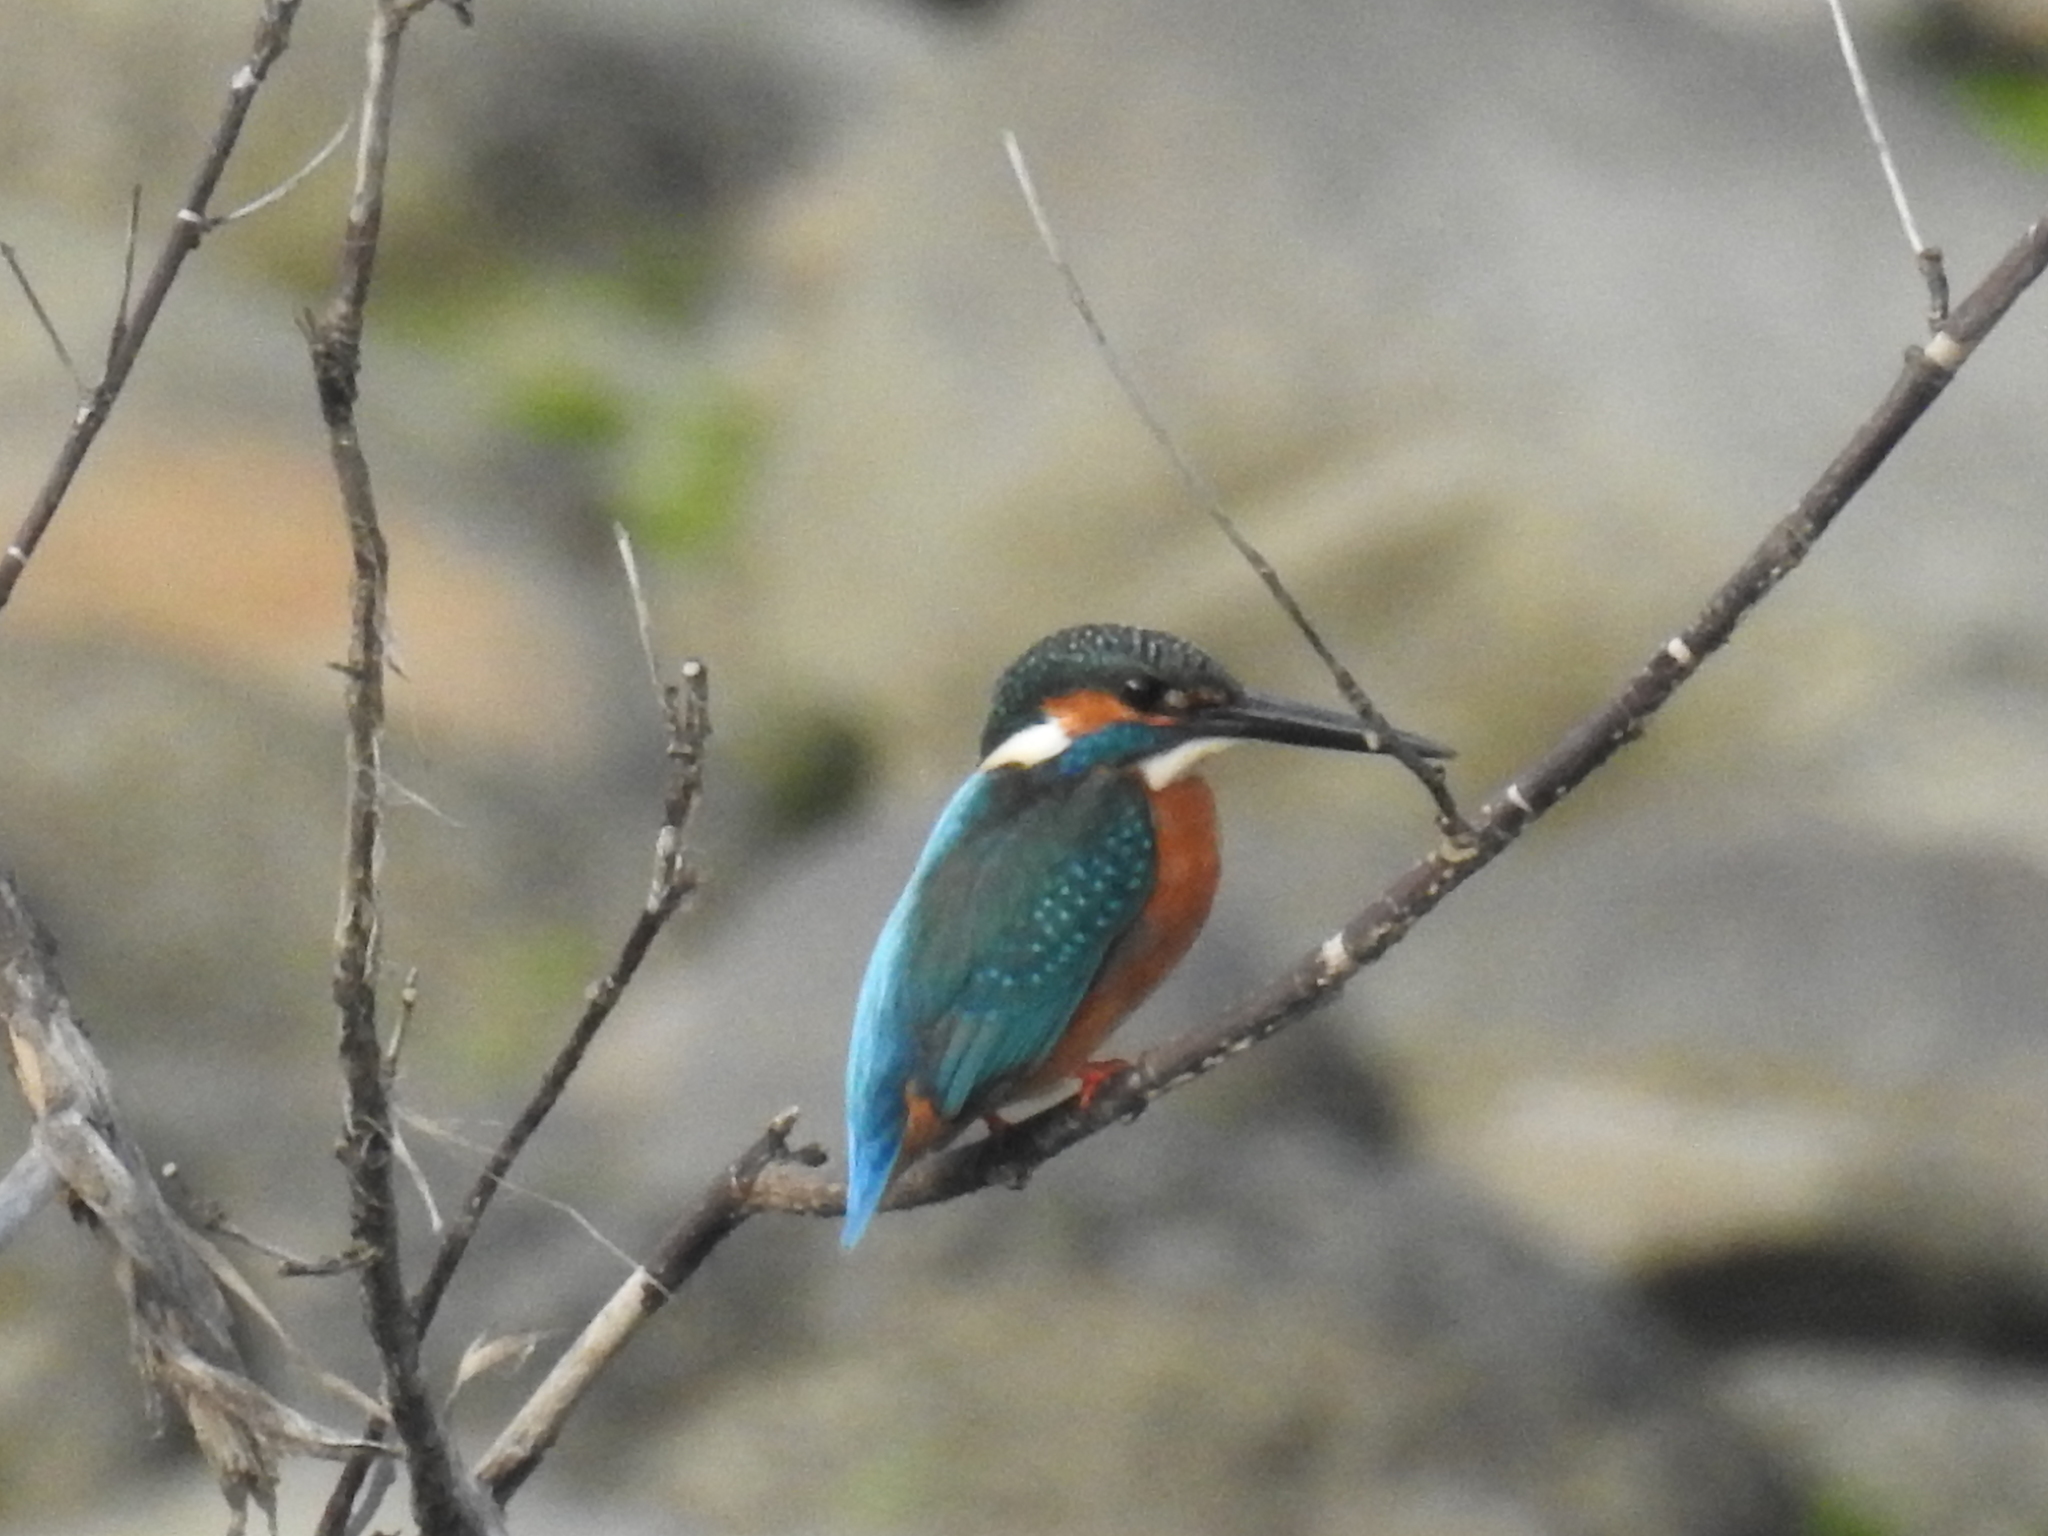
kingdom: Animalia
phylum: Chordata
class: Aves
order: Coraciiformes
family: Alcedinidae
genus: Alcedo
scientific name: Alcedo atthis
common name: Common kingfisher
